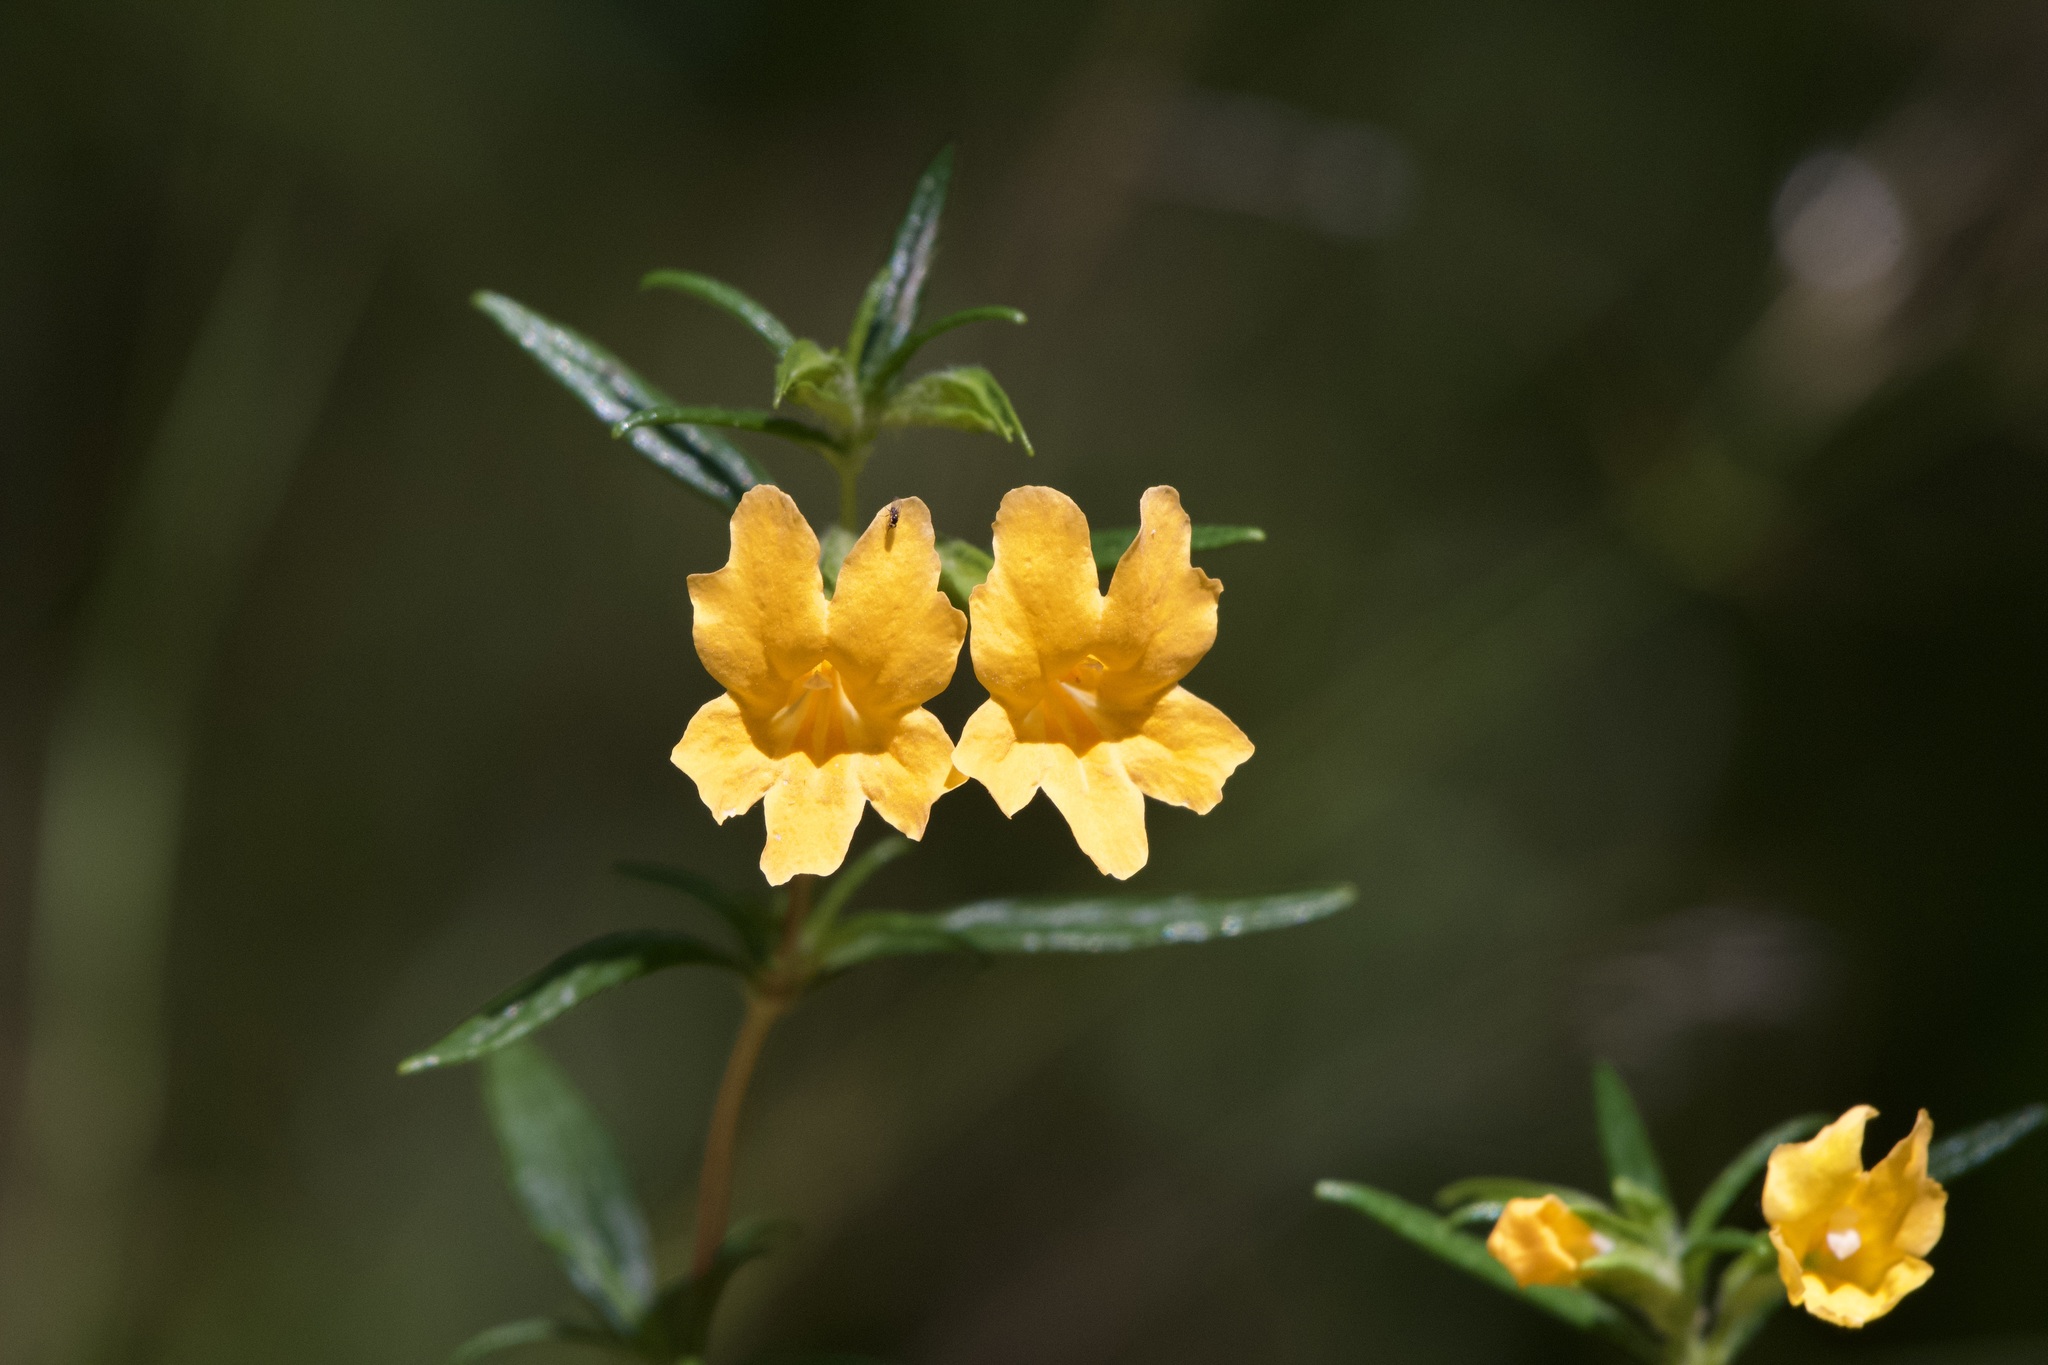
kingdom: Plantae
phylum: Tracheophyta
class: Magnoliopsida
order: Lamiales
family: Phrymaceae
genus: Diplacus
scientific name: Diplacus aurantiacus
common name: Bush monkey-flower
